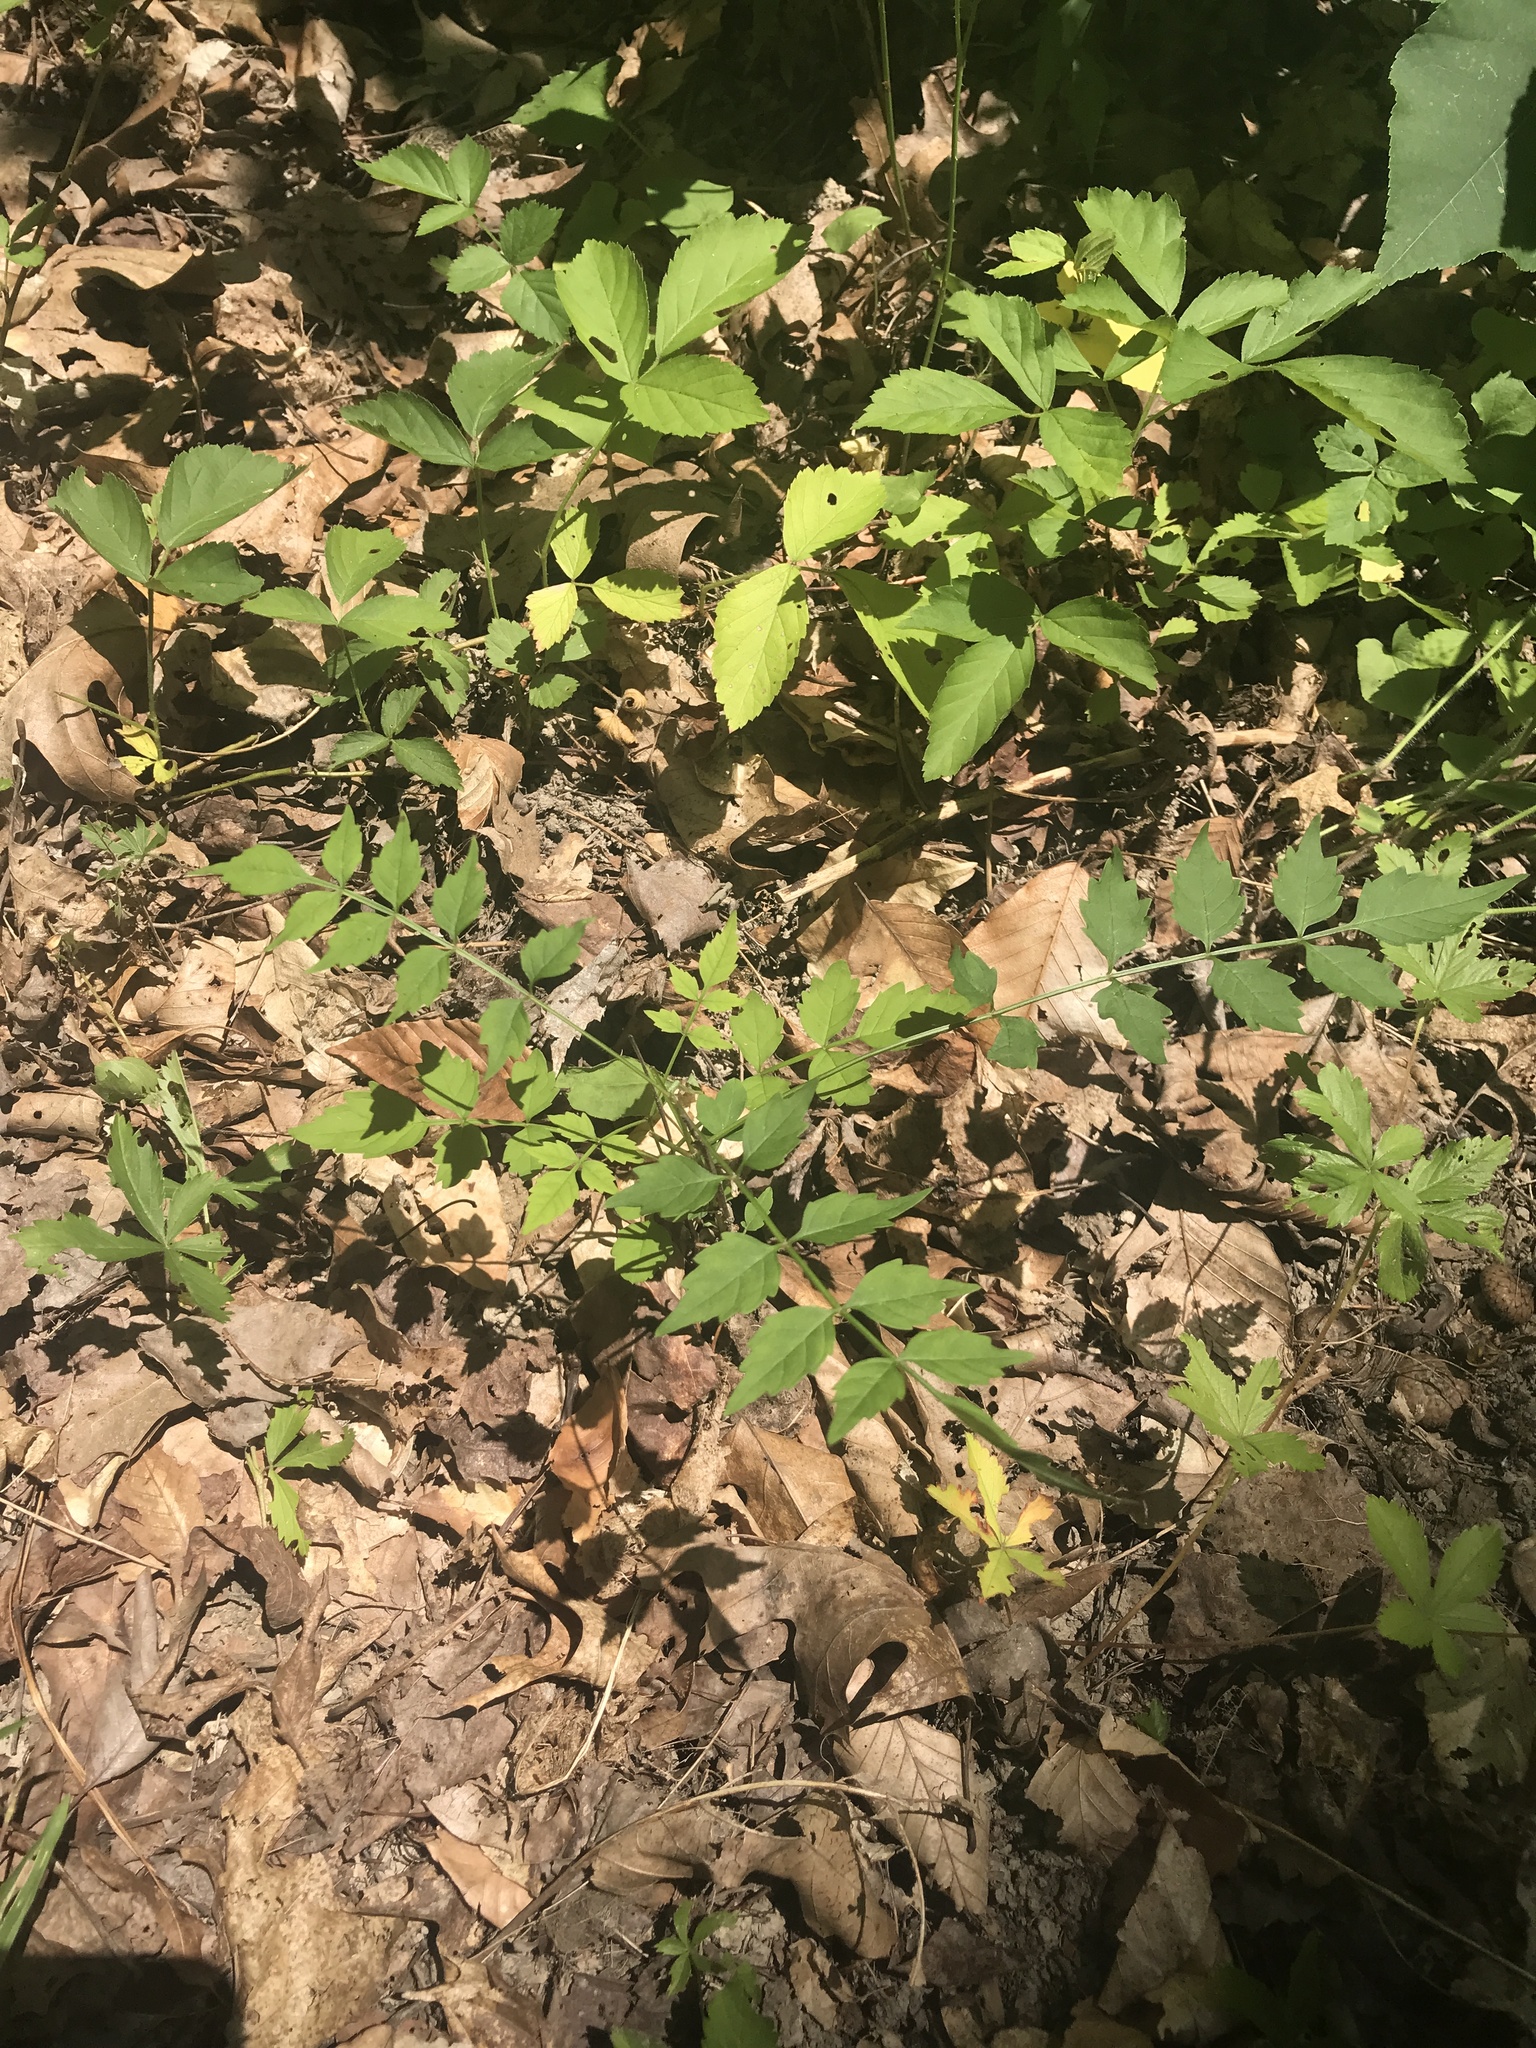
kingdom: Plantae
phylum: Tracheophyta
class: Magnoliopsida
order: Lamiales
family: Bignoniaceae
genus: Campsis
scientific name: Campsis radicans
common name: Trumpet-creeper
